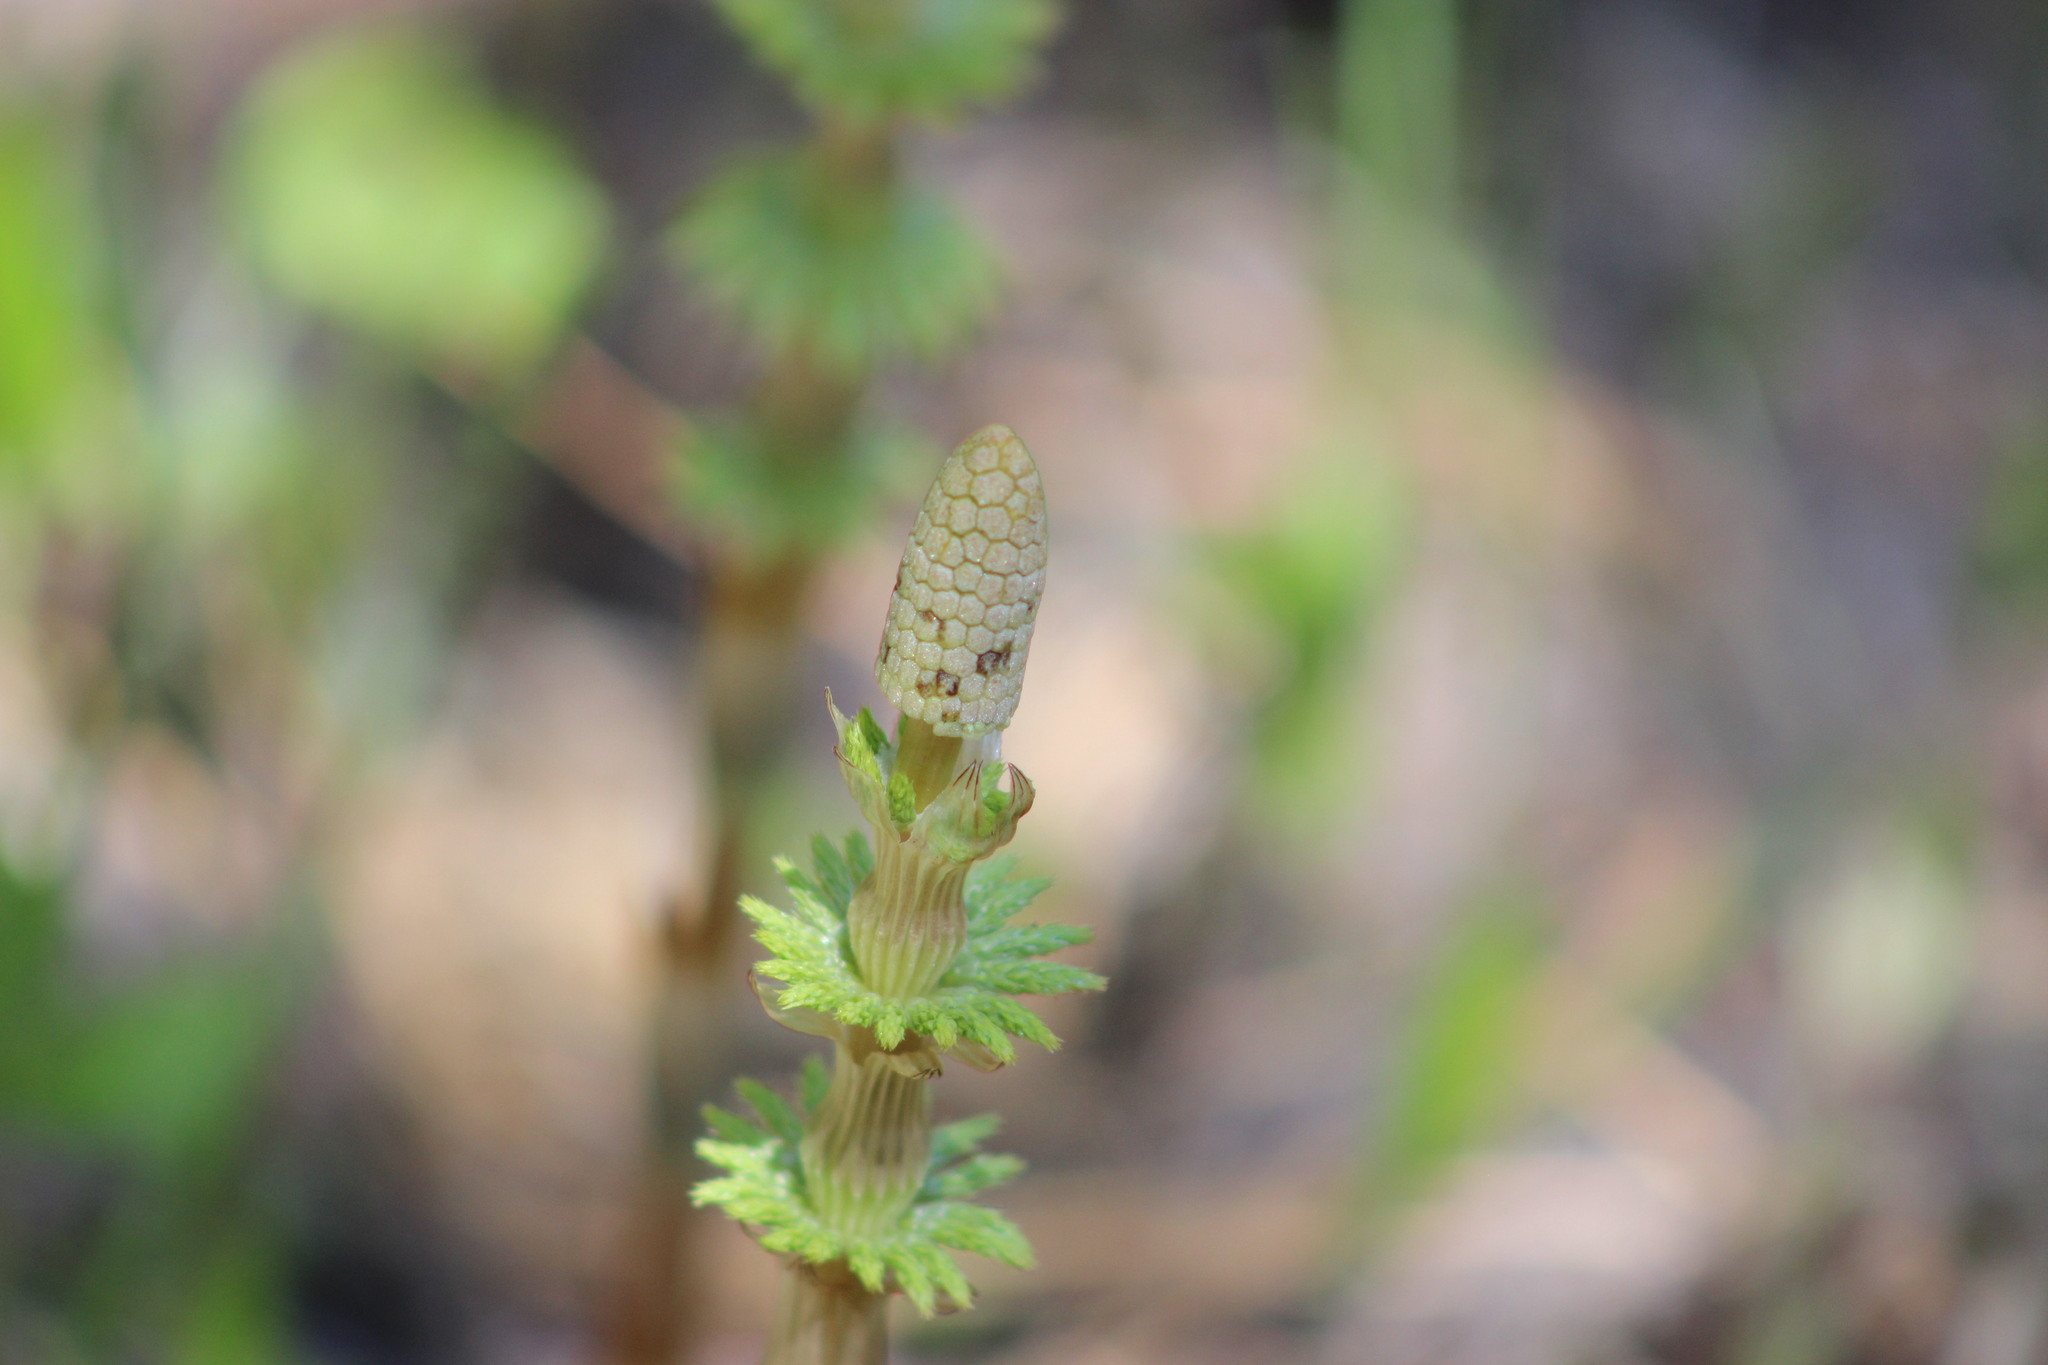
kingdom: Plantae
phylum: Tracheophyta
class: Polypodiopsida
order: Equisetales
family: Equisetaceae
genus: Equisetum
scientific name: Equisetum sylvaticum
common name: Wood horsetail
